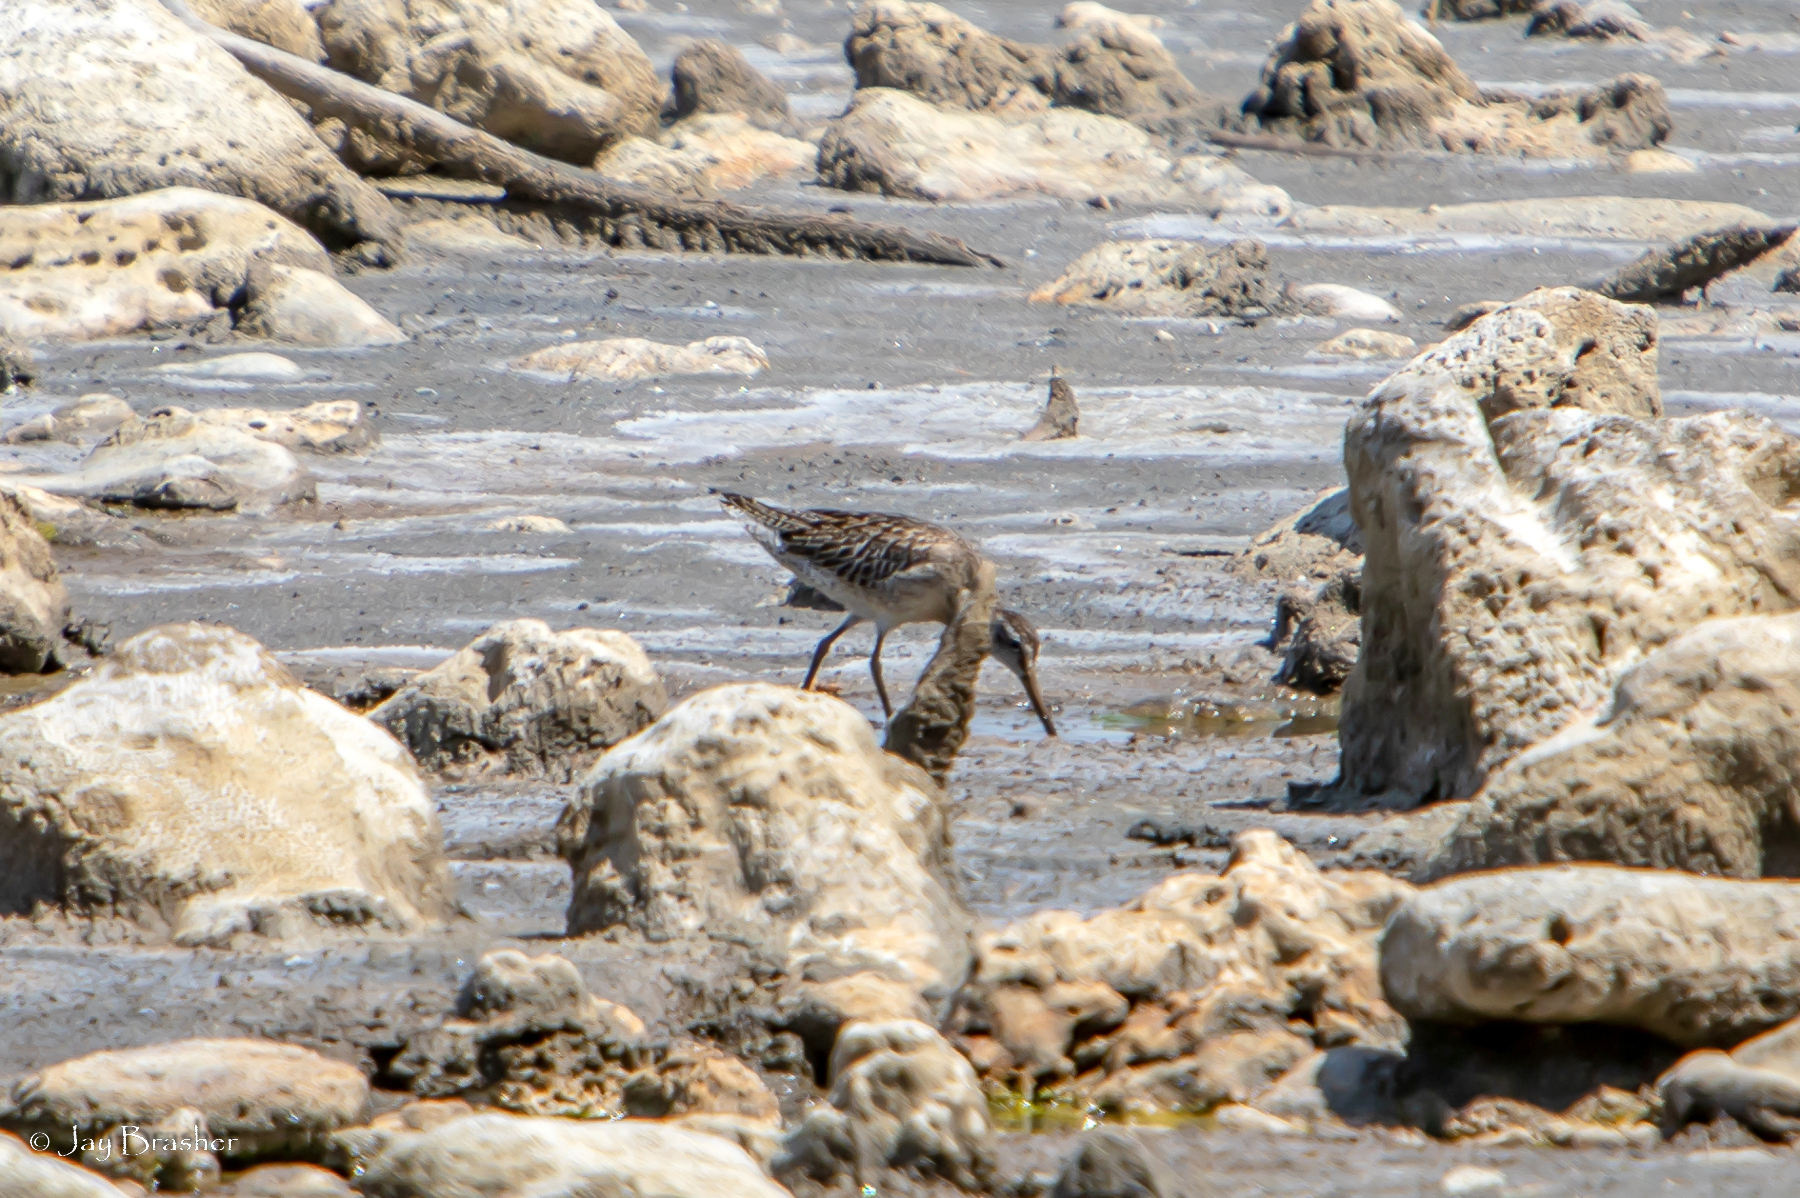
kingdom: Animalia
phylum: Chordata
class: Aves
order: Charadriiformes
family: Scolopacidae
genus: Limnodromus
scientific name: Limnodromus griseus
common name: Short-billed dowitcher
